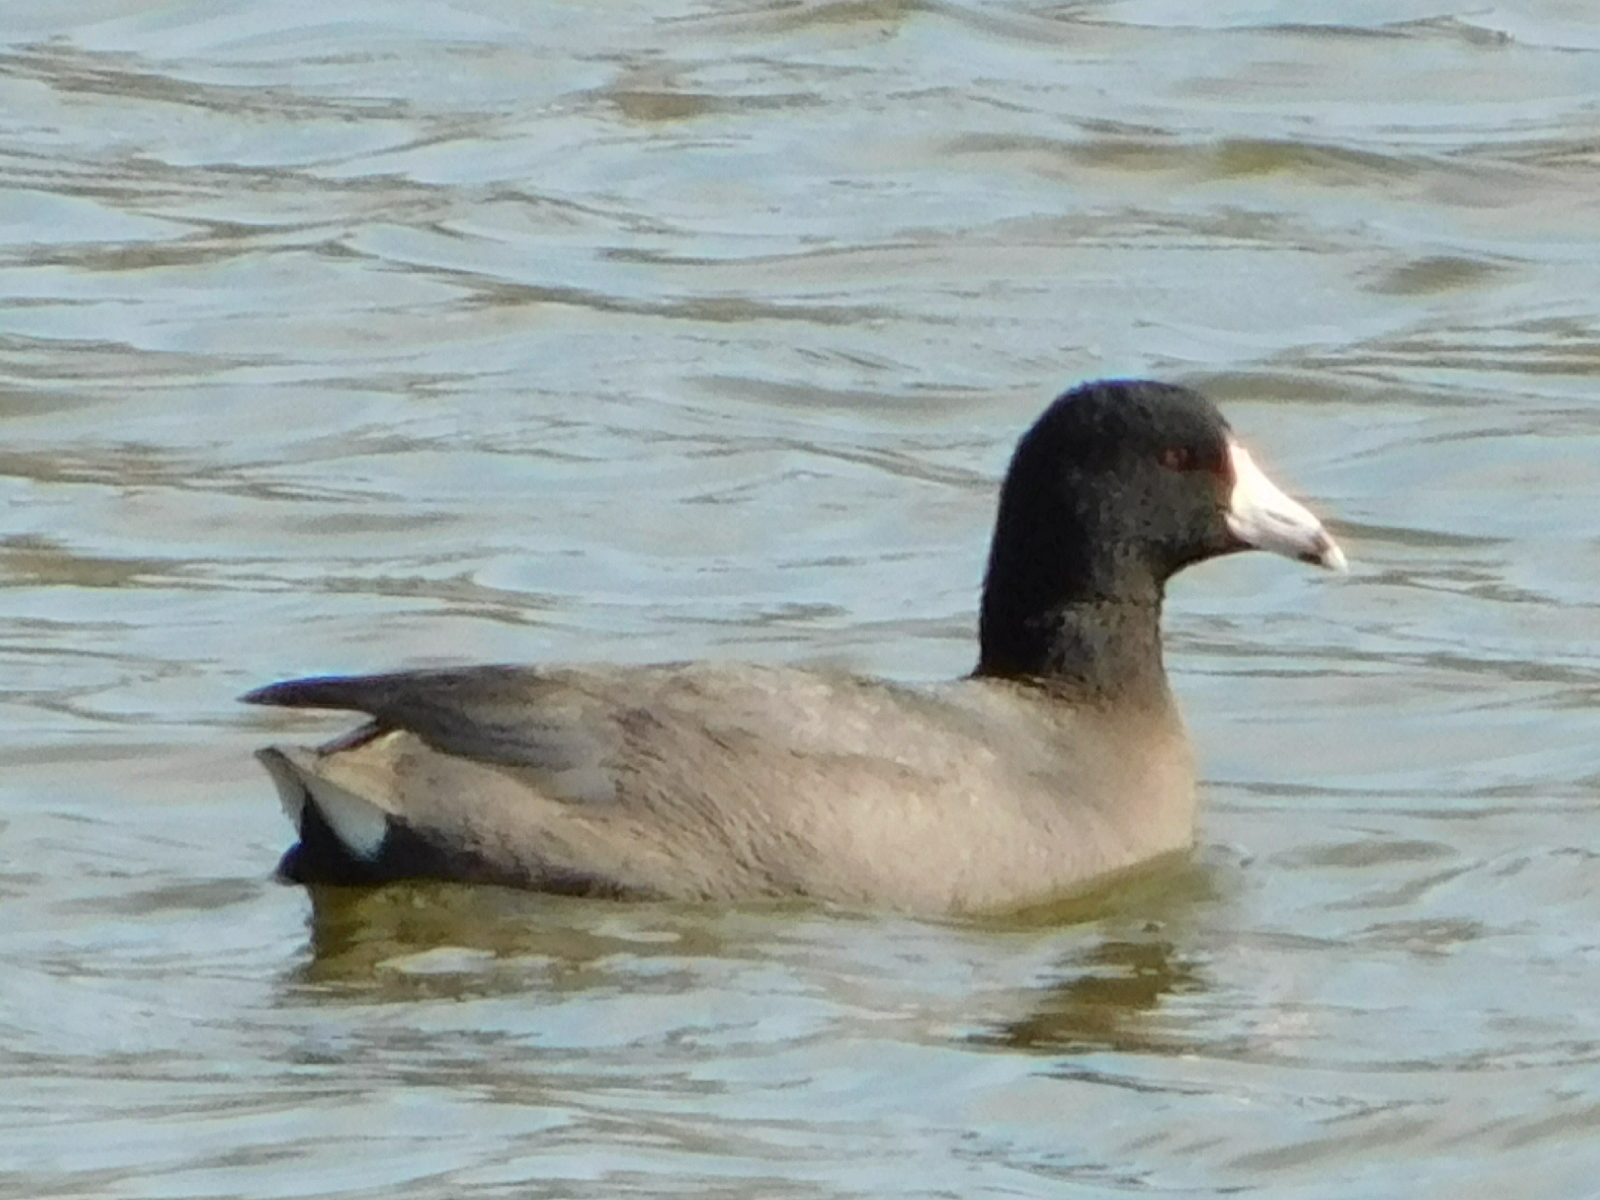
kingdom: Animalia
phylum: Chordata
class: Aves
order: Gruiformes
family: Rallidae
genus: Fulica
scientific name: Fulica americana
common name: American coot
